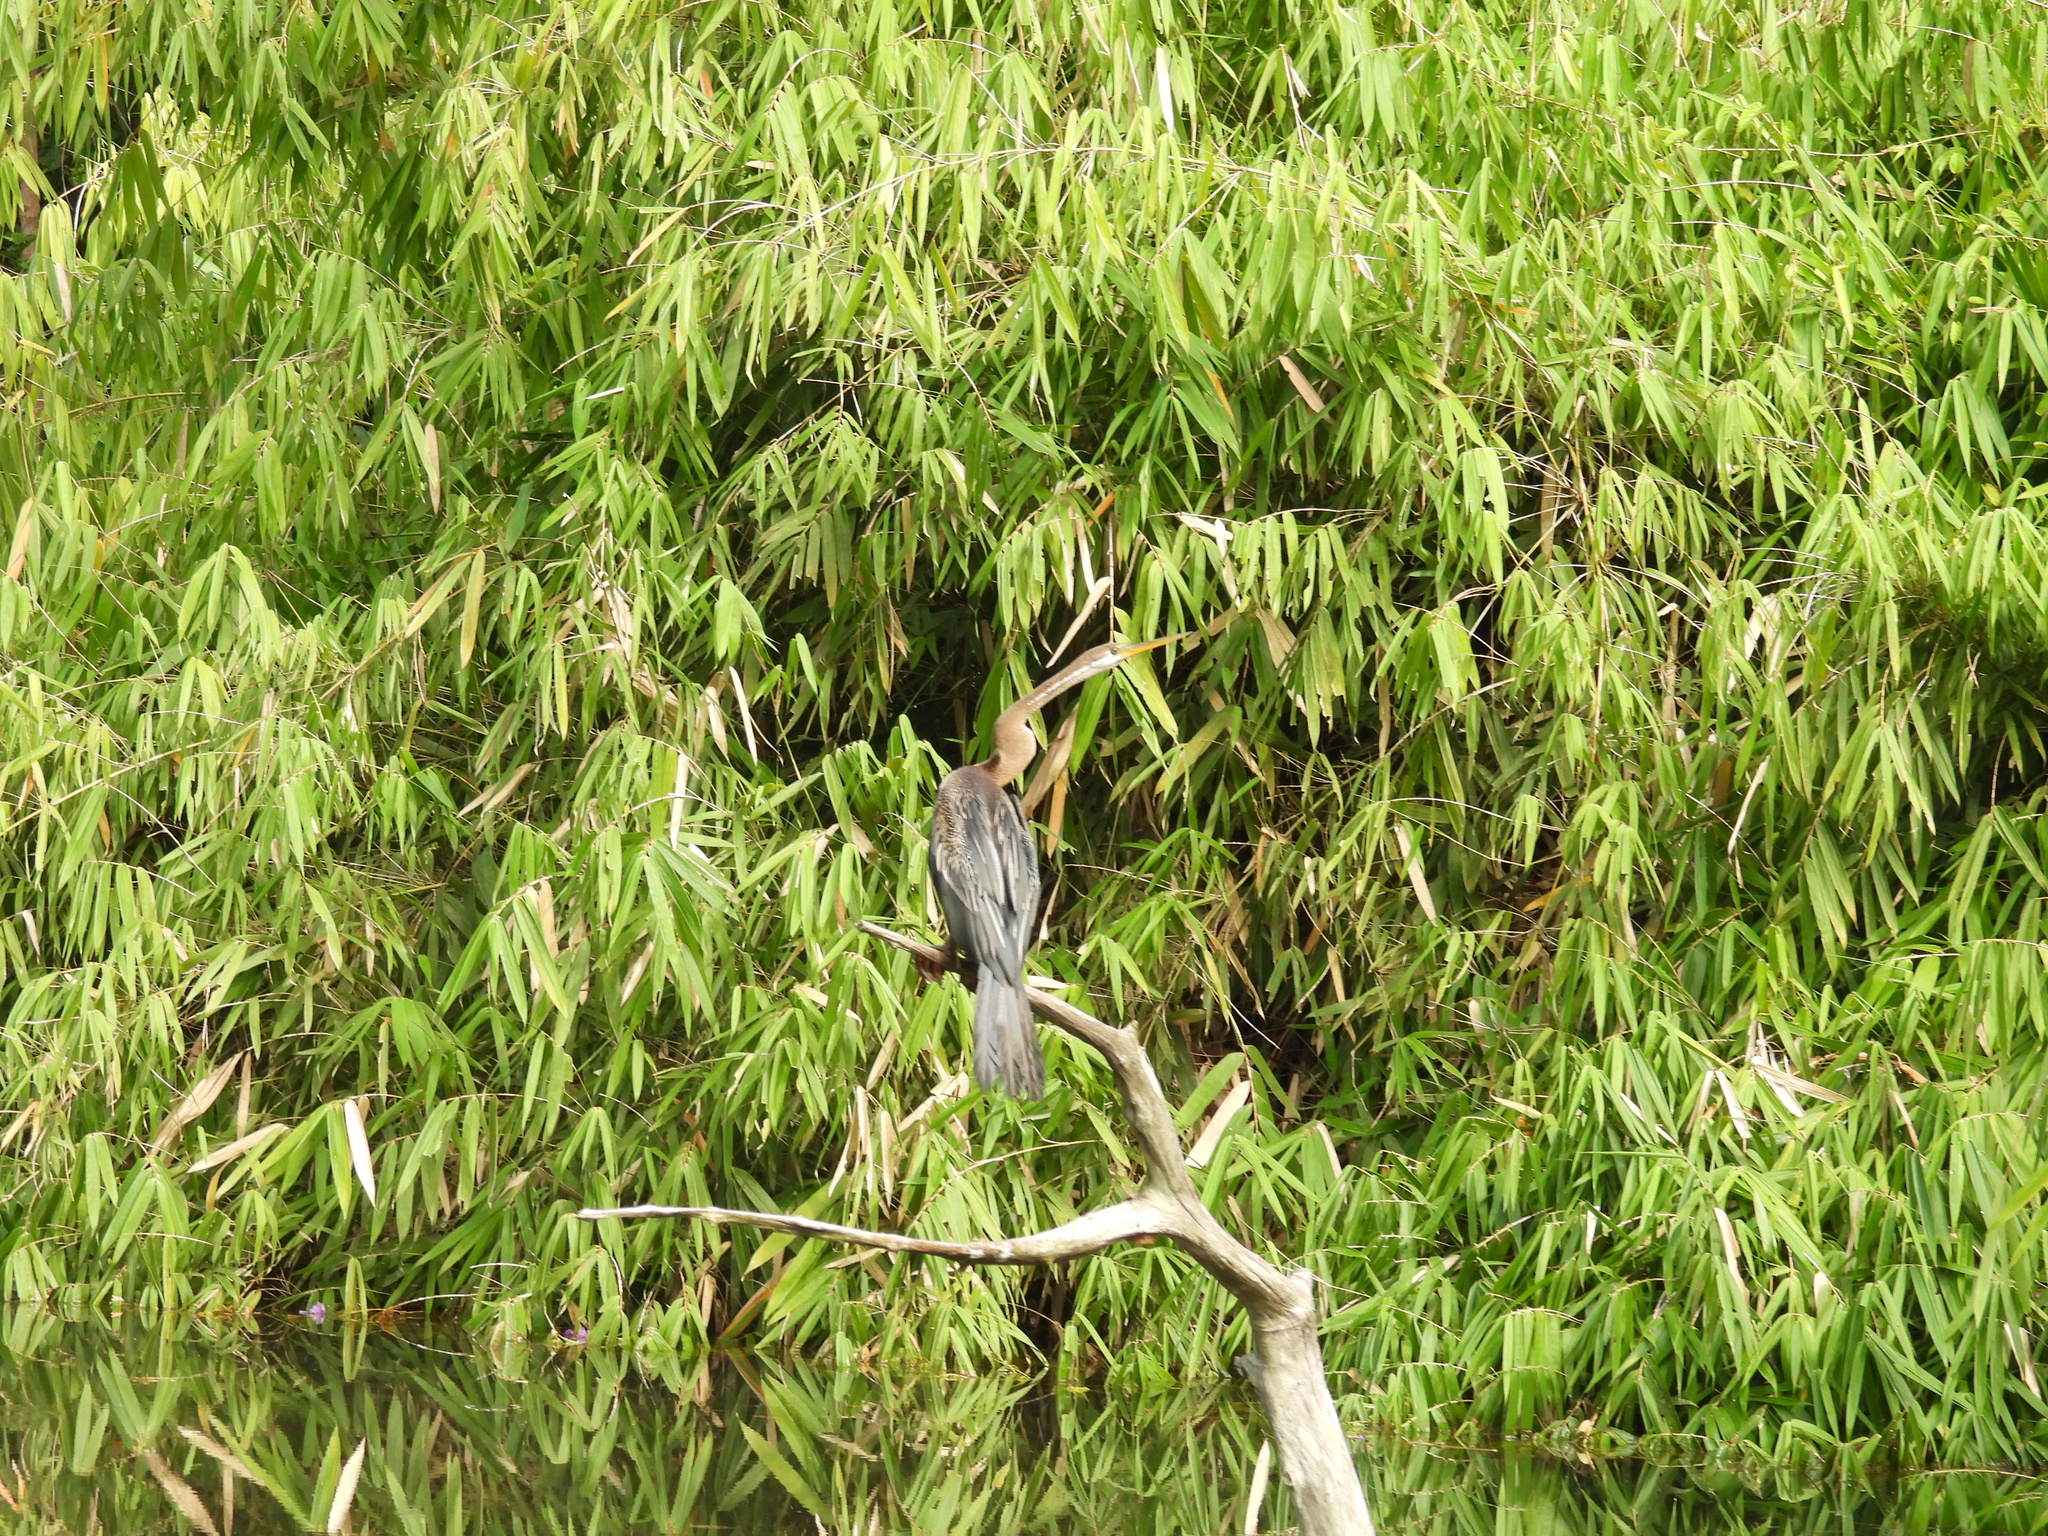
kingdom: Animalia
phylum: Chordata
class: Aves
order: Suliformes
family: Anhingidae
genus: Anhinga
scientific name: Anhinga melanogaster
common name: Oriental darter
